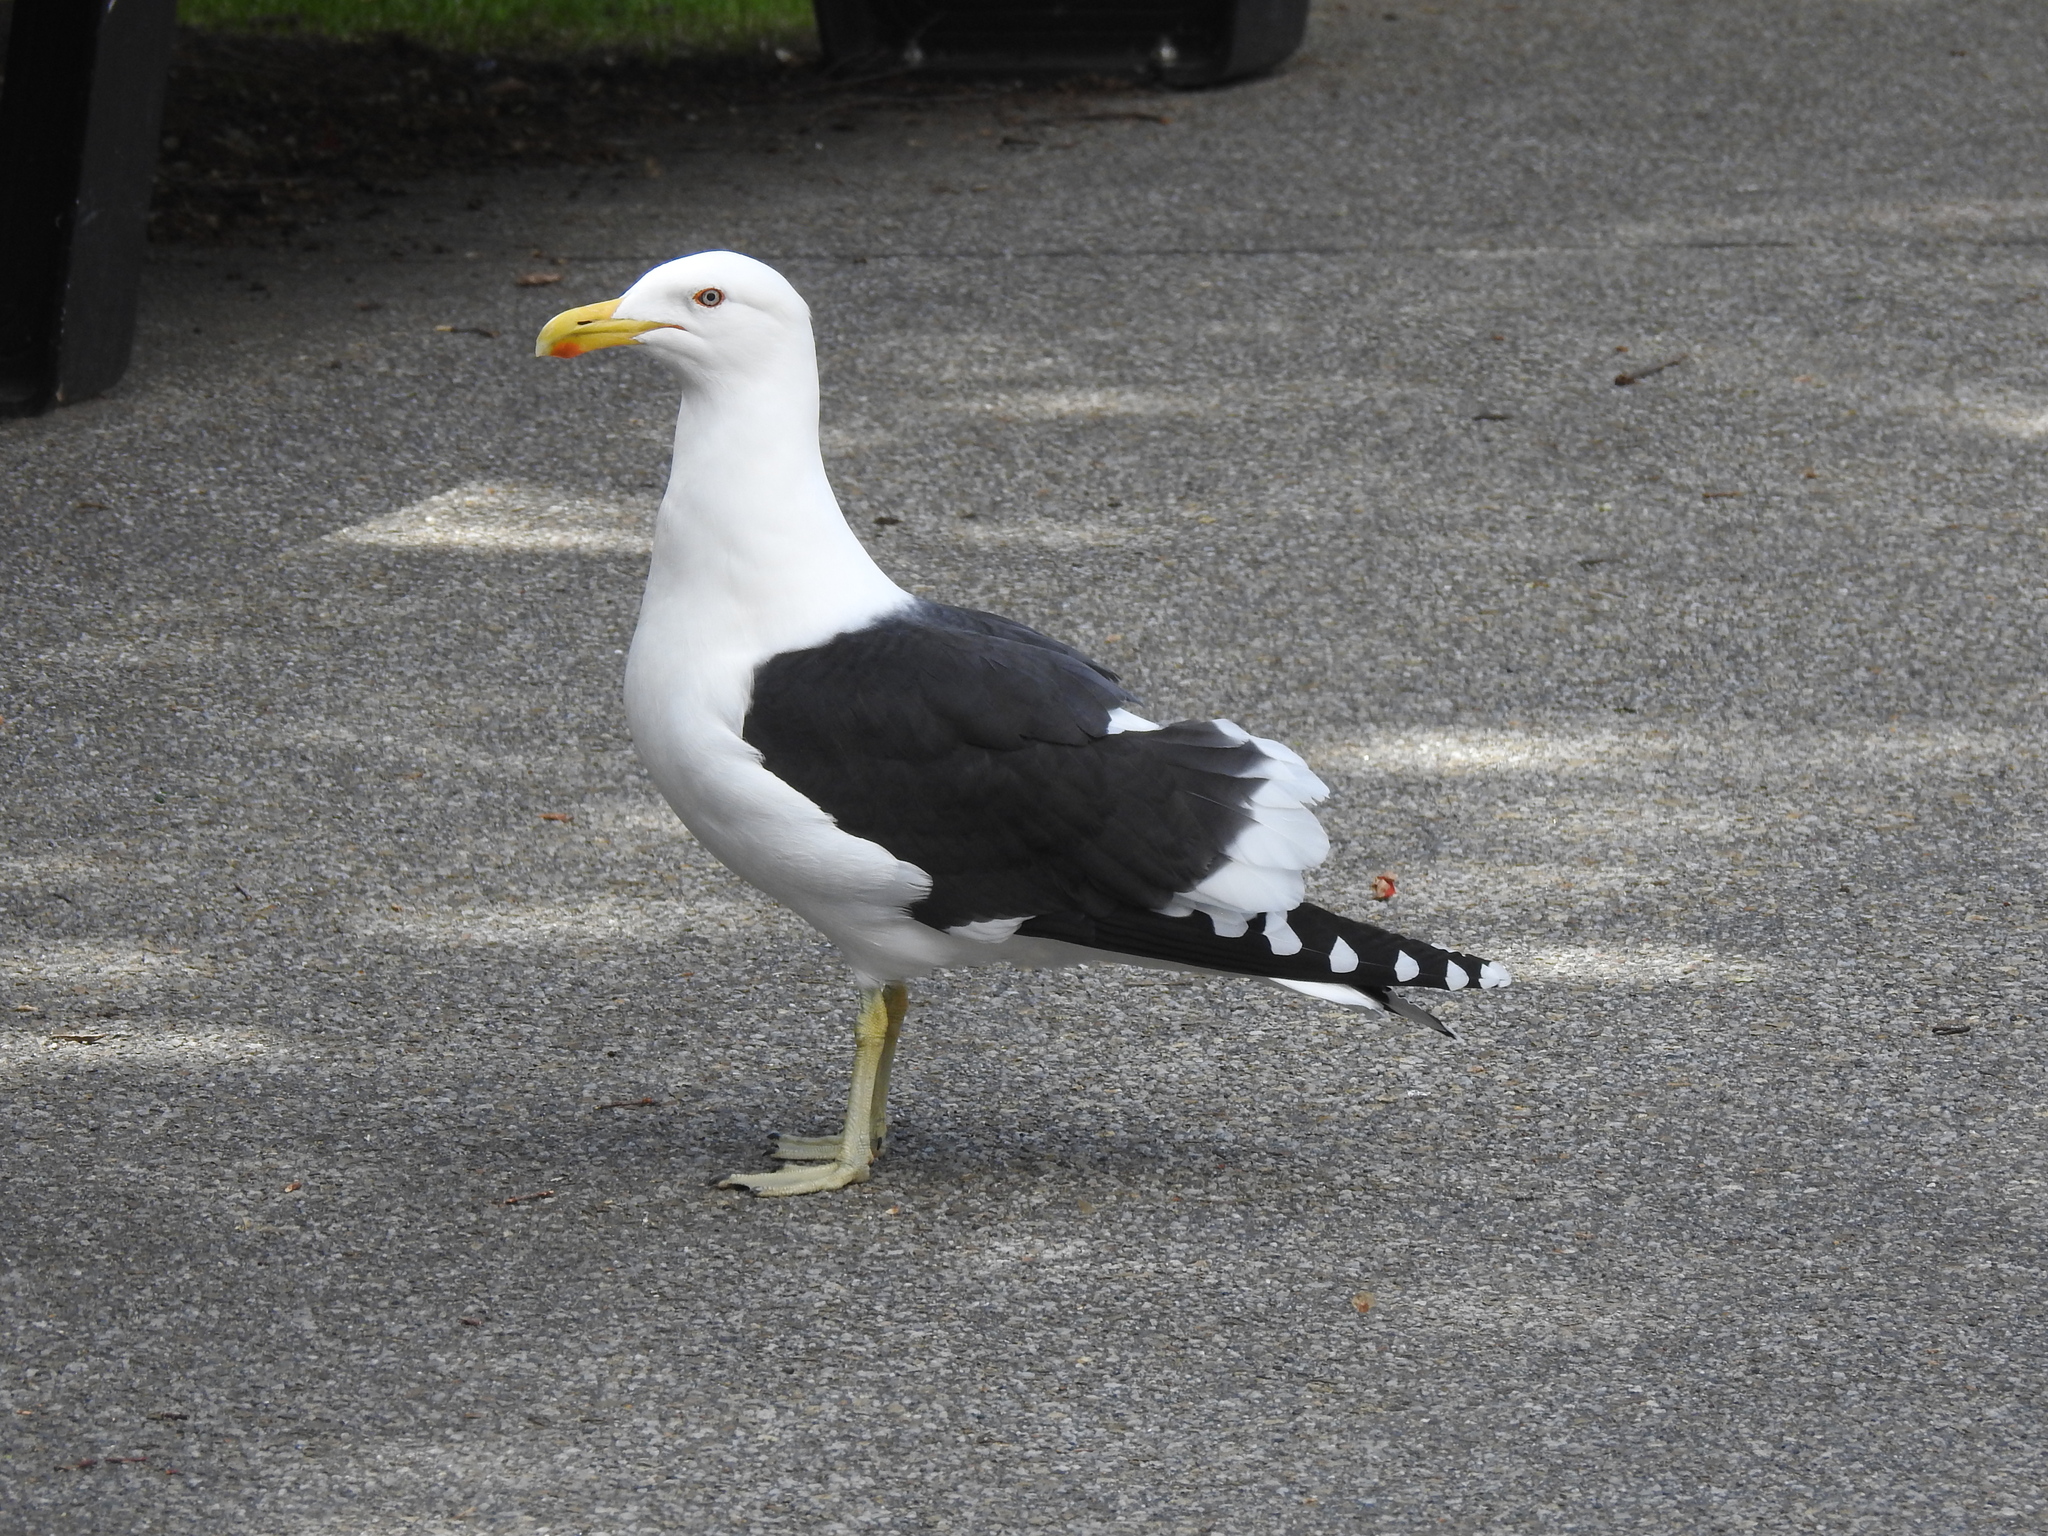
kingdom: Animalia
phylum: Chordata
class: Aves
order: Charadriiformes
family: Laridae
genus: Larus
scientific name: Larus dominicanus
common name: Kelp gull
